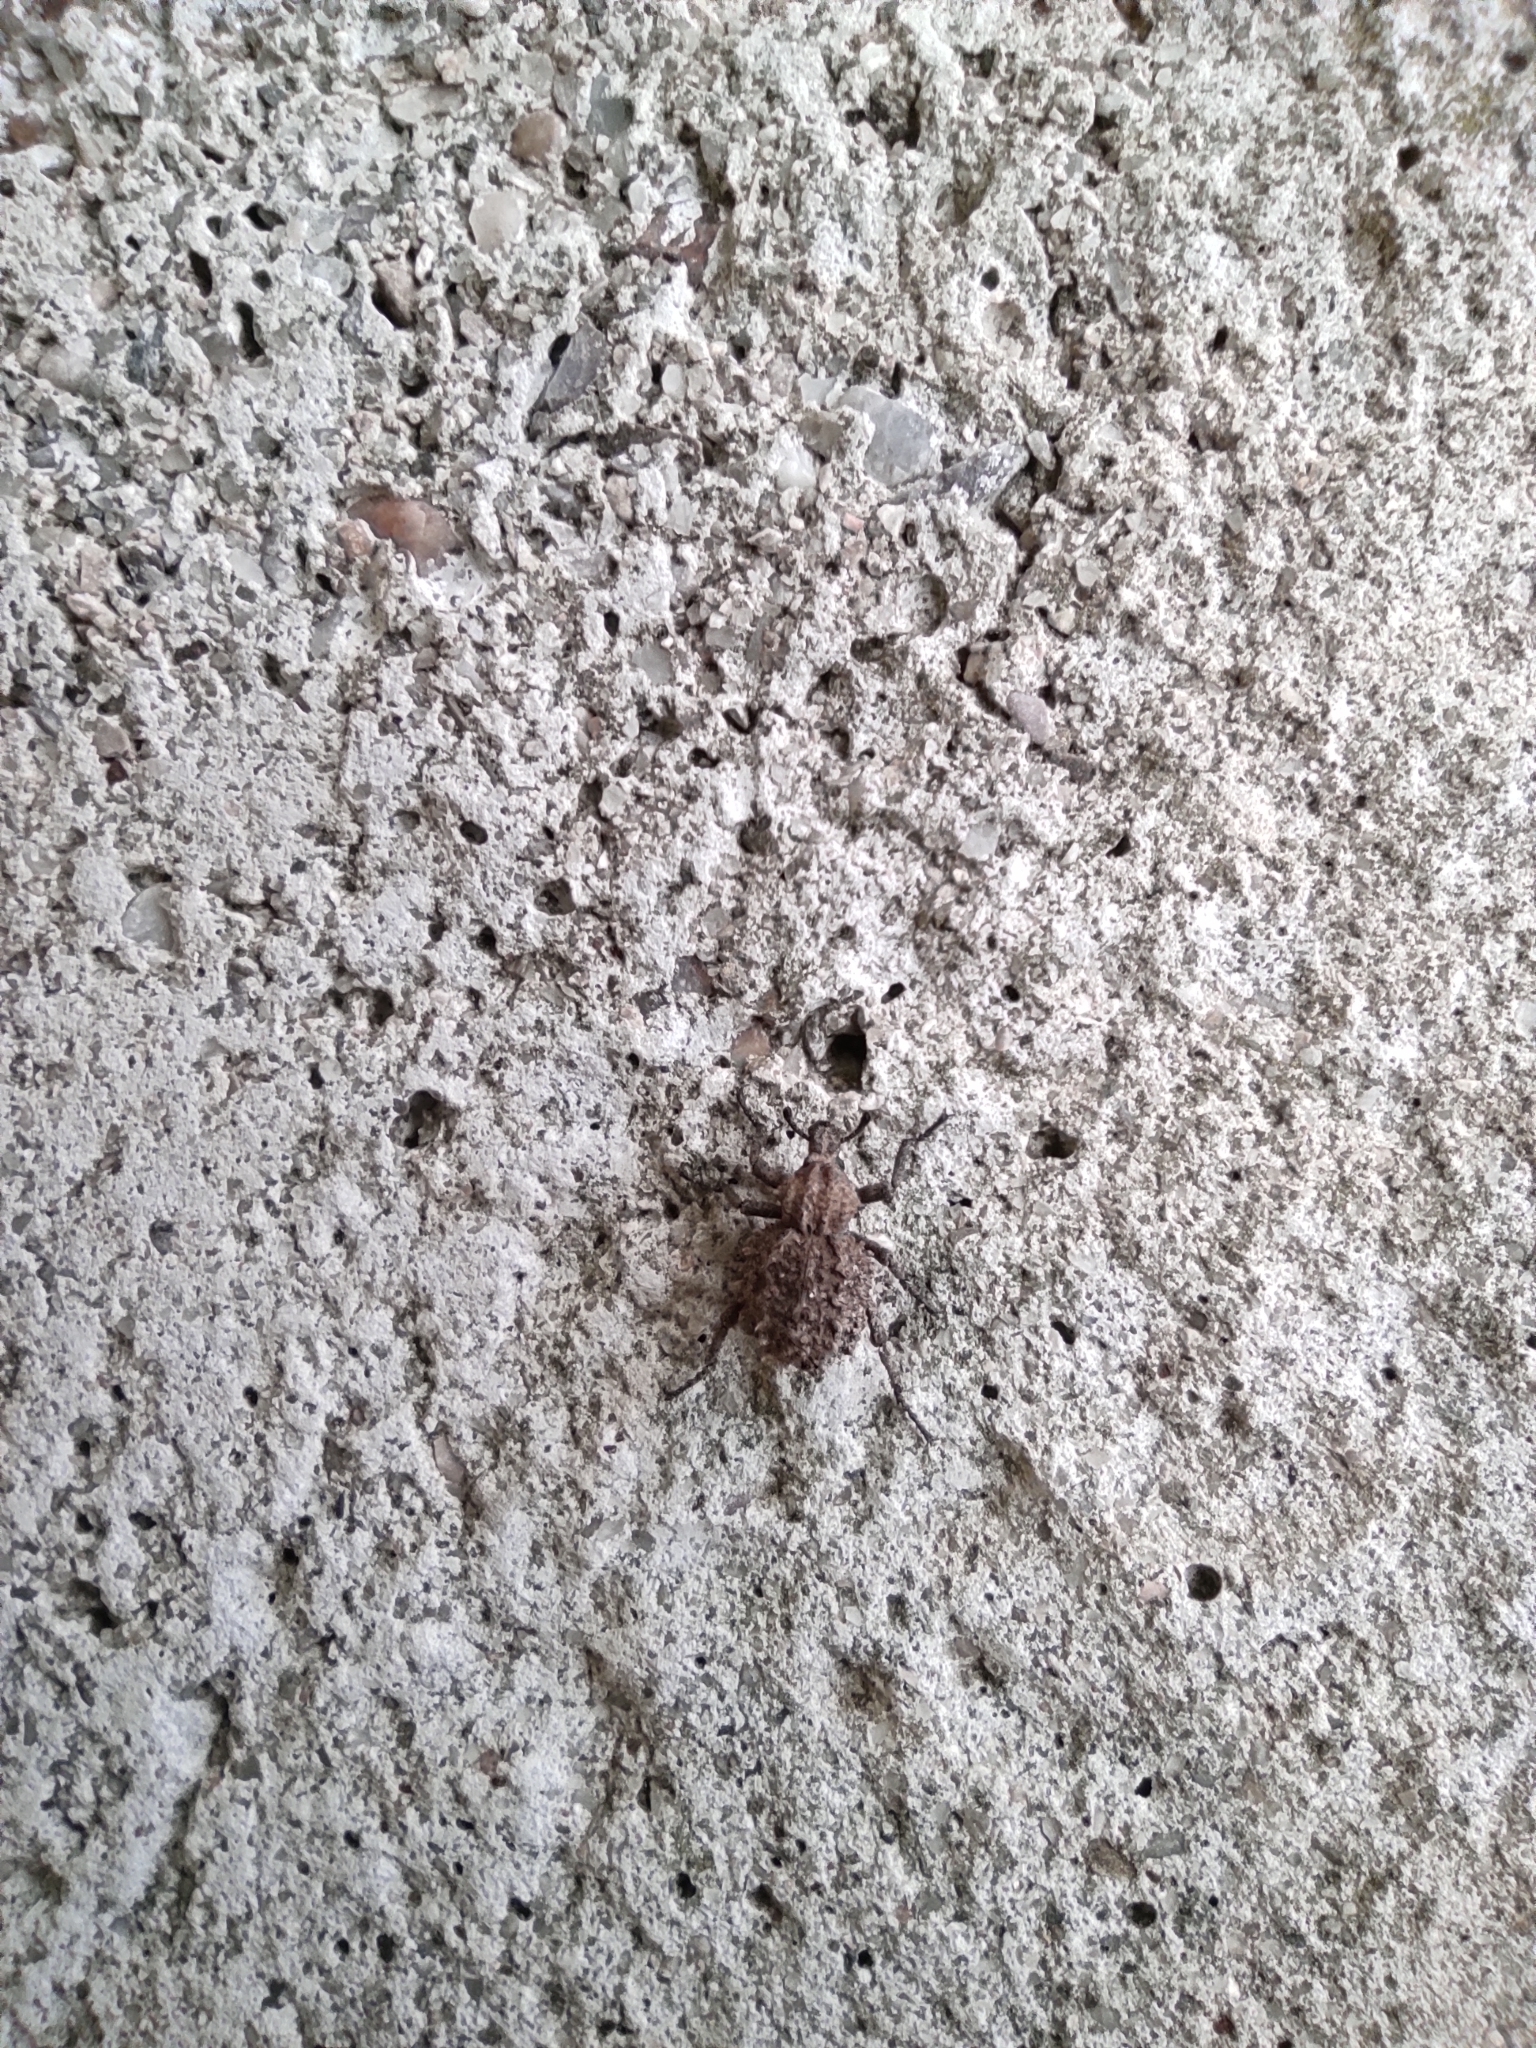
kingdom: Animalia
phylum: Arthropoda
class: Insecta
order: Coleoptera
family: Brachyceridae
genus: Brachycerus
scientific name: Brachycerus muricatus
